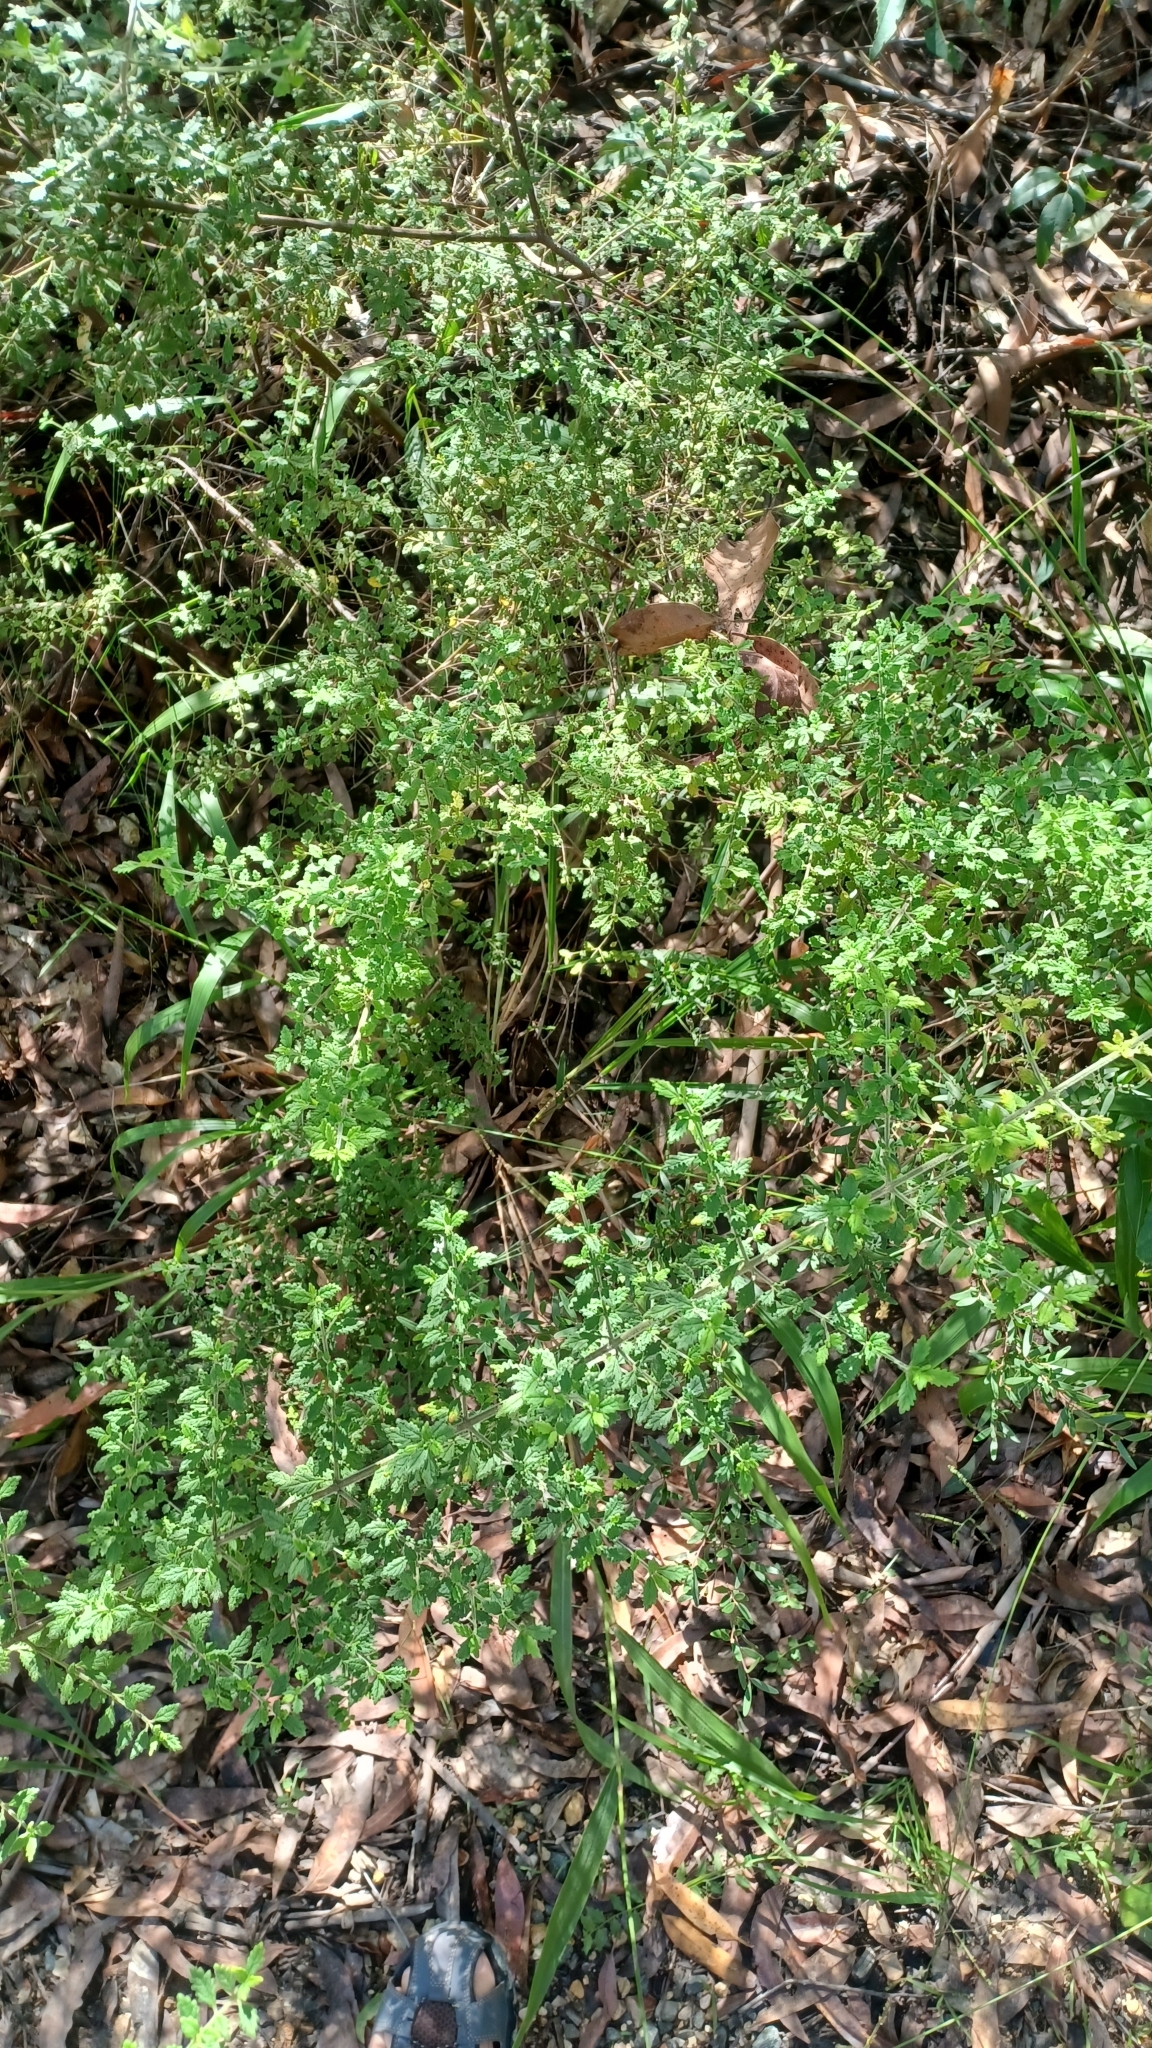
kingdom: Plantae
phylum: Tracheophyta
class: Magnoliopsida
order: Lamiales
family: Lamiaceae
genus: Prostanthera
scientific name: Prostanthera incana
